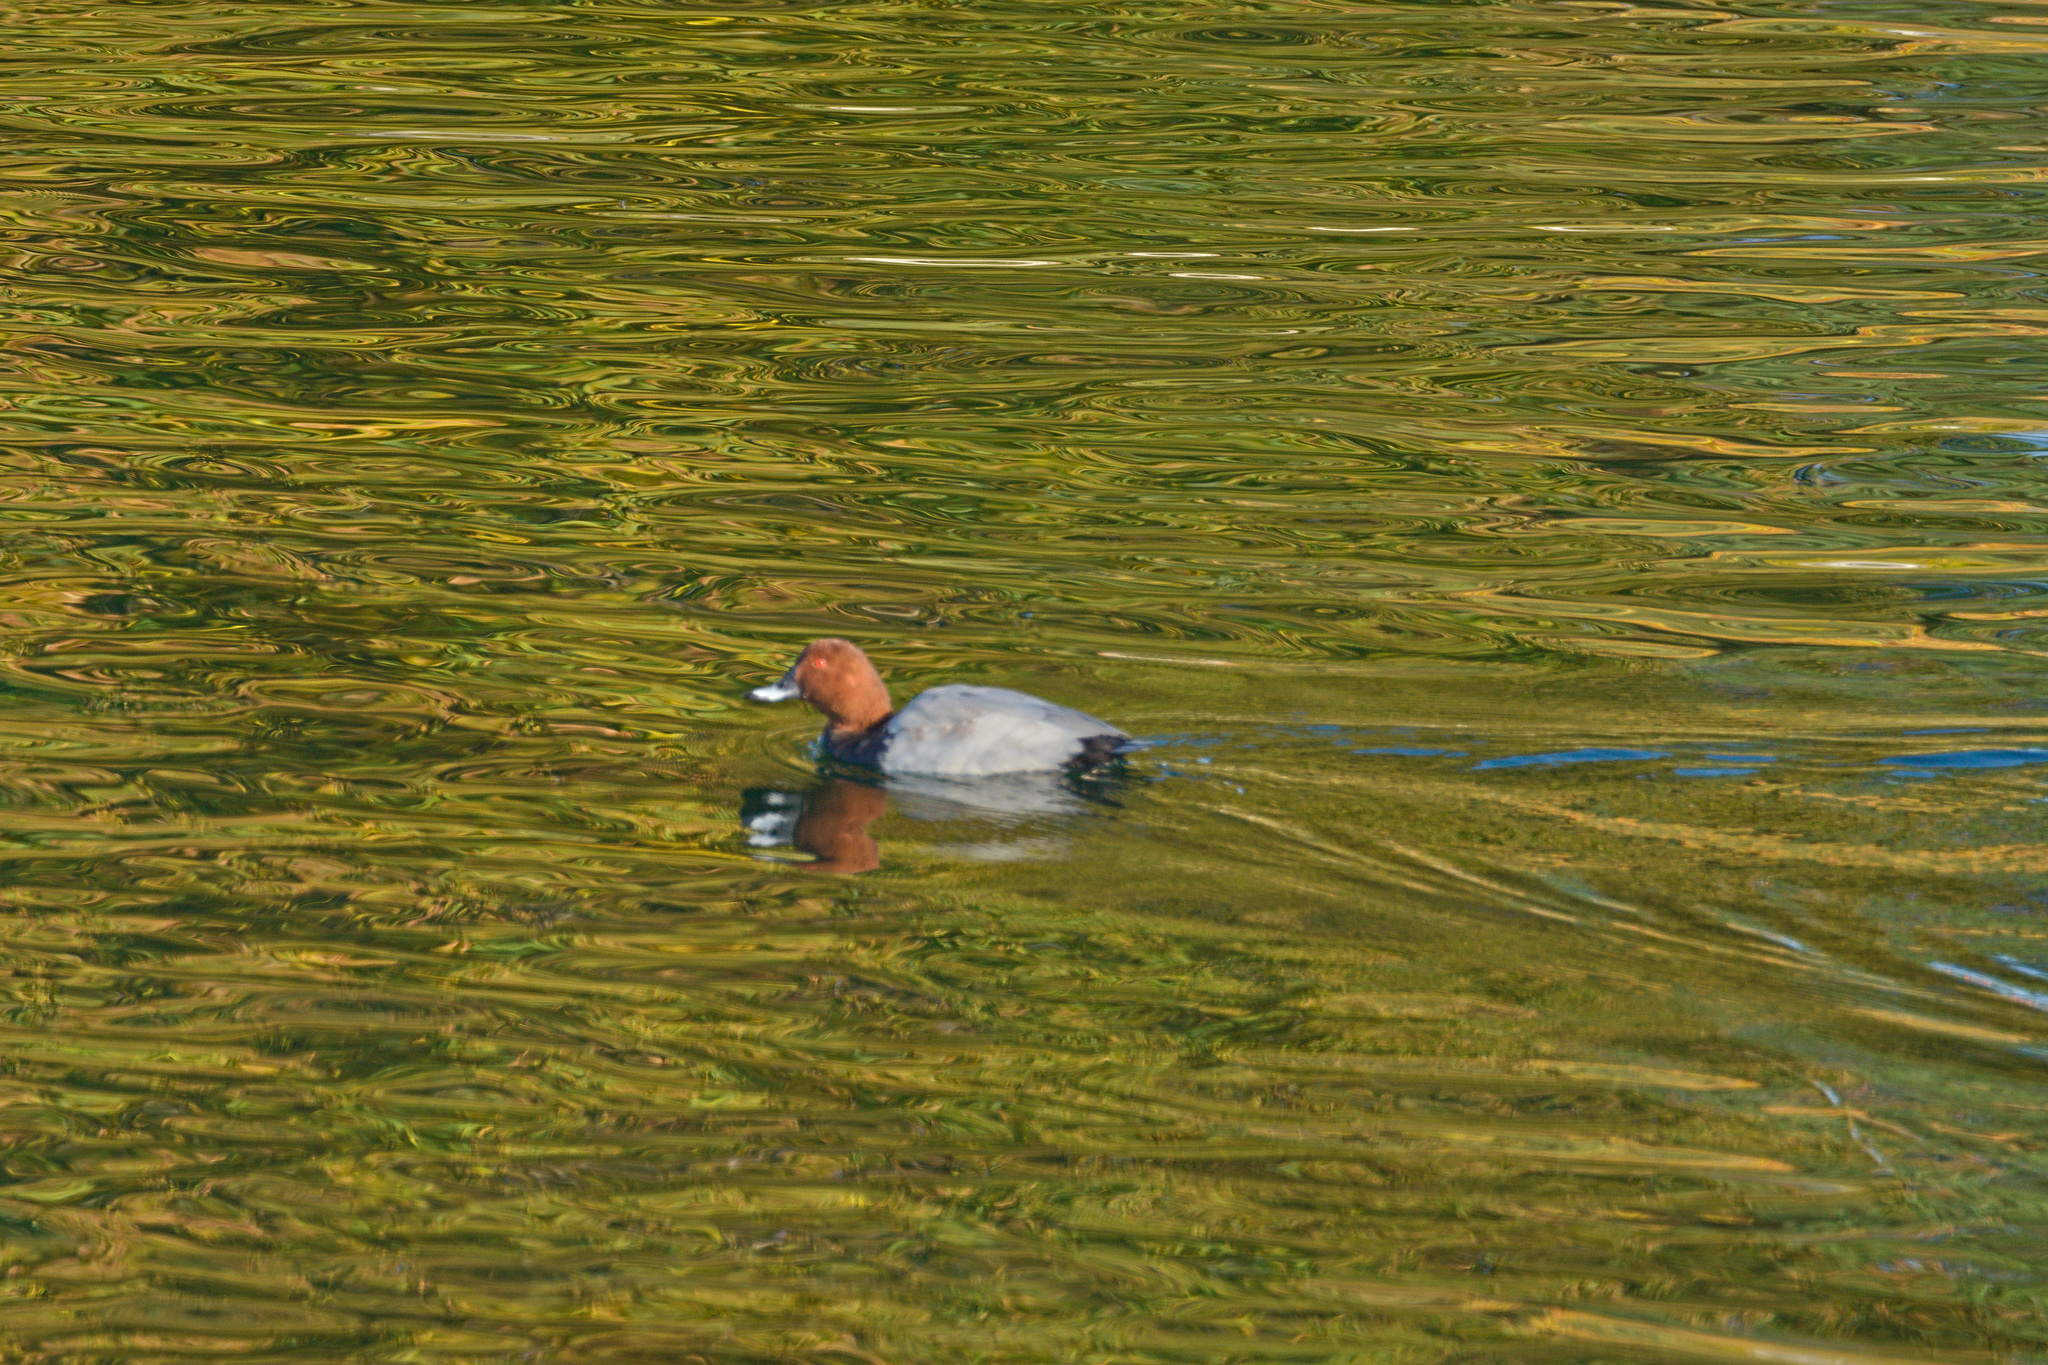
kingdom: Animalia
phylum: Chordata
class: Aves
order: Anseriformes
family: Anatidae
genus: Aythya
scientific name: Aythya ferina
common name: Common pochard
